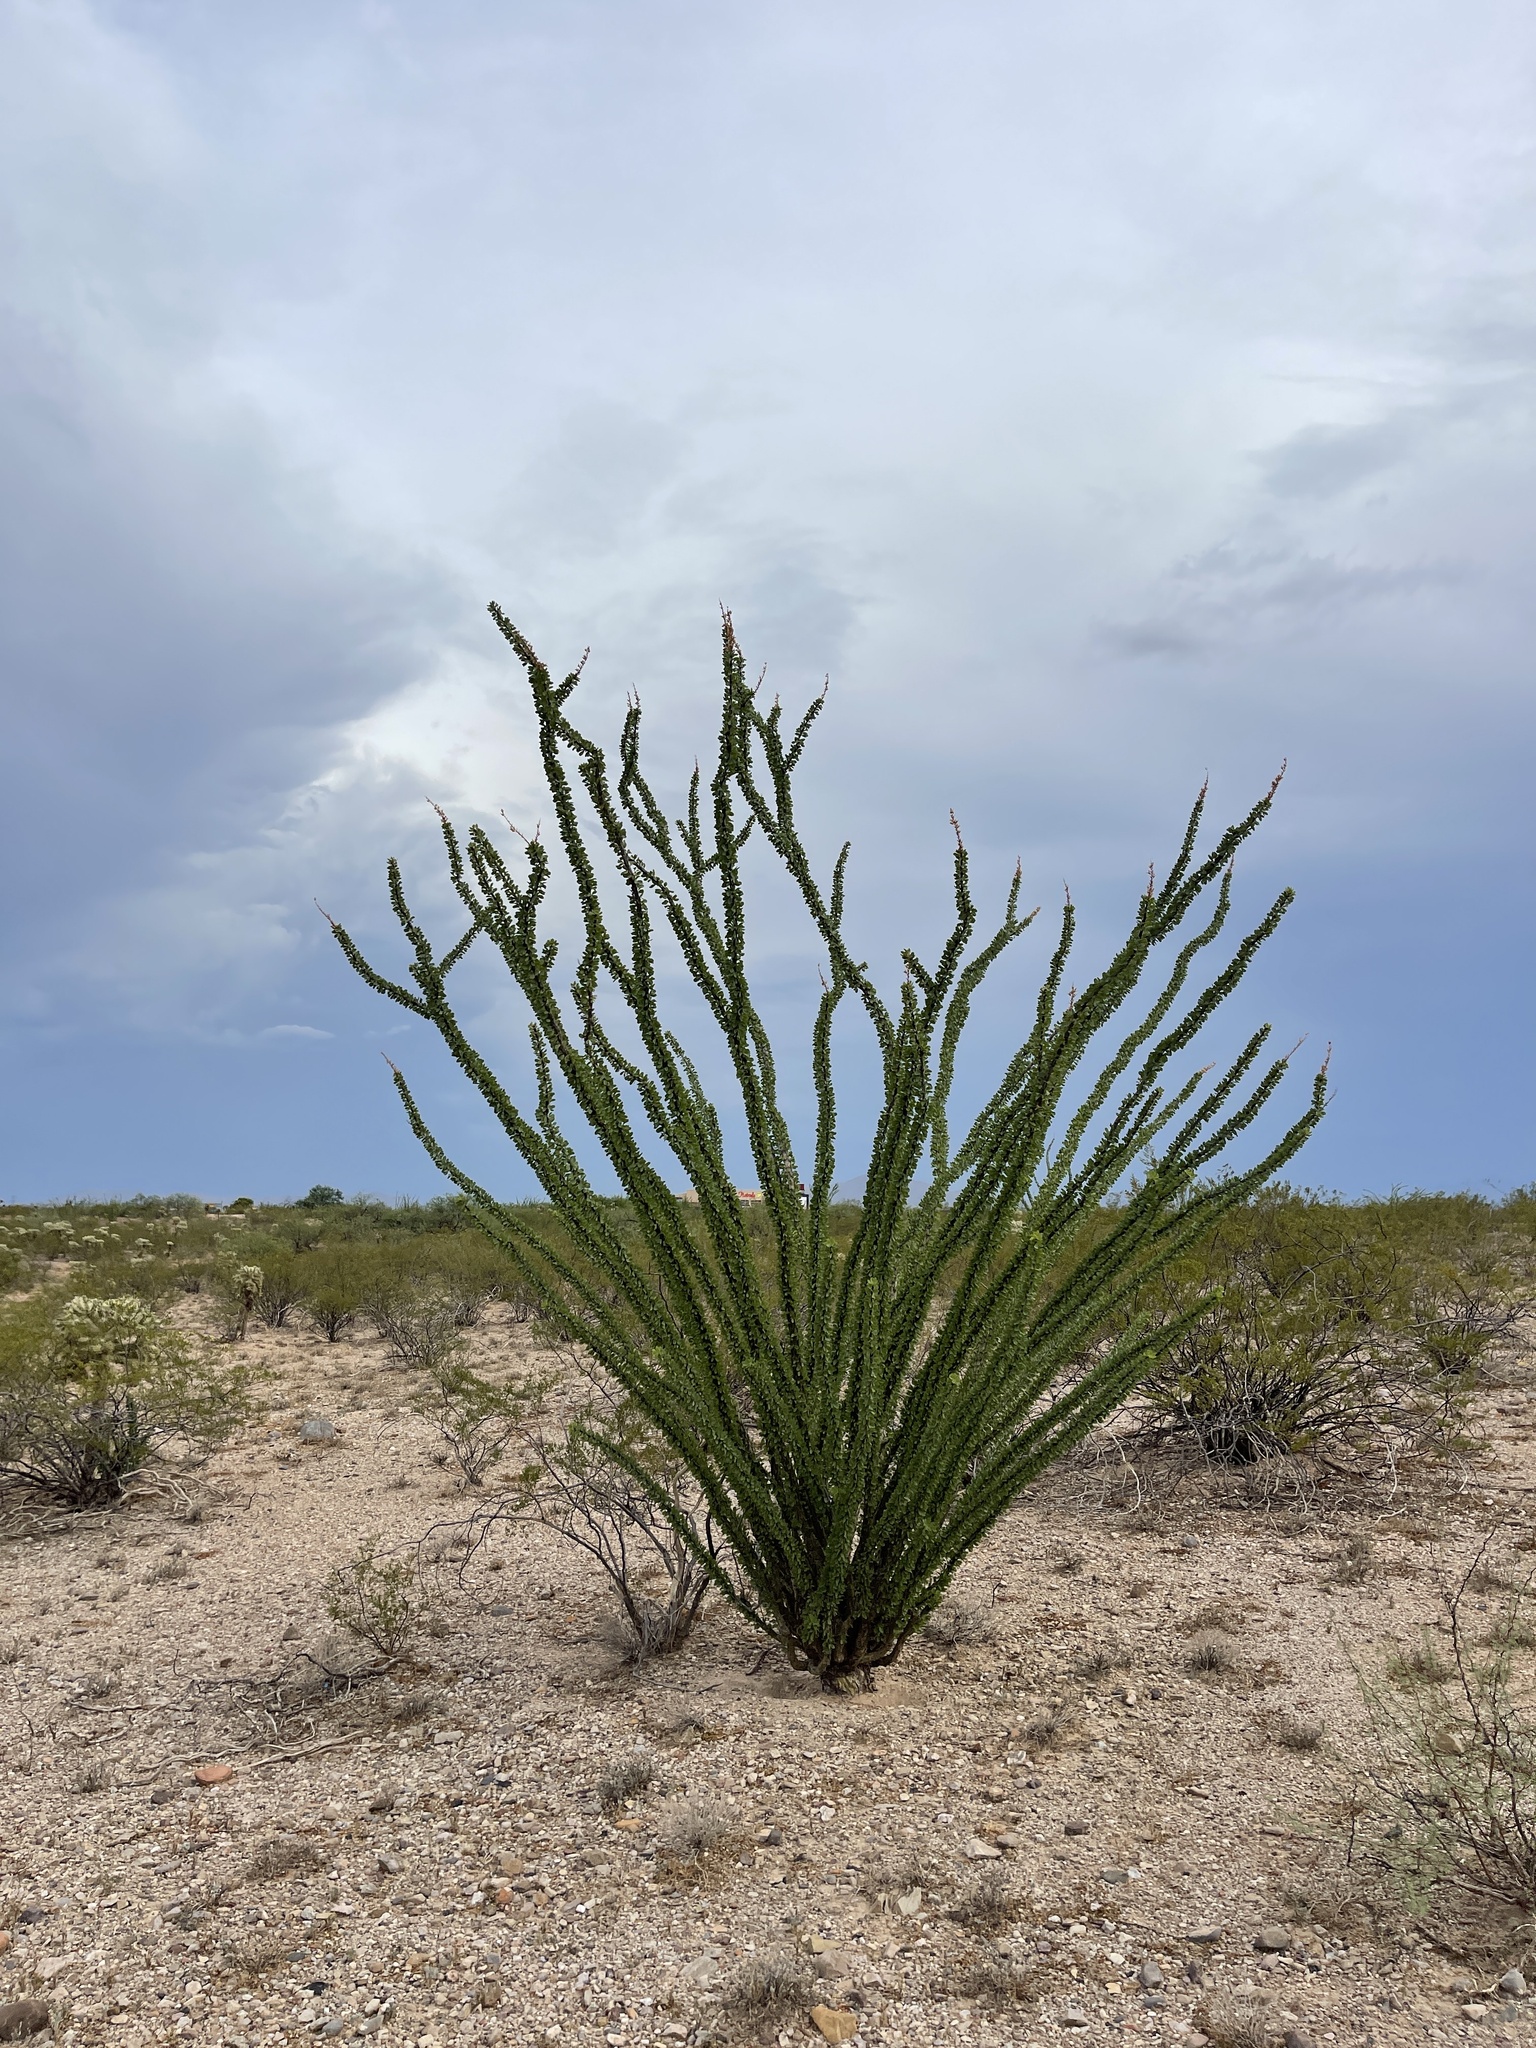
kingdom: Plantae
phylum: Tracheophyta
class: Magnoliopsida
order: Ericales
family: Fouquieriaceae
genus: Fouquieria
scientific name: Fouquieria splendens
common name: Vine-cactus
